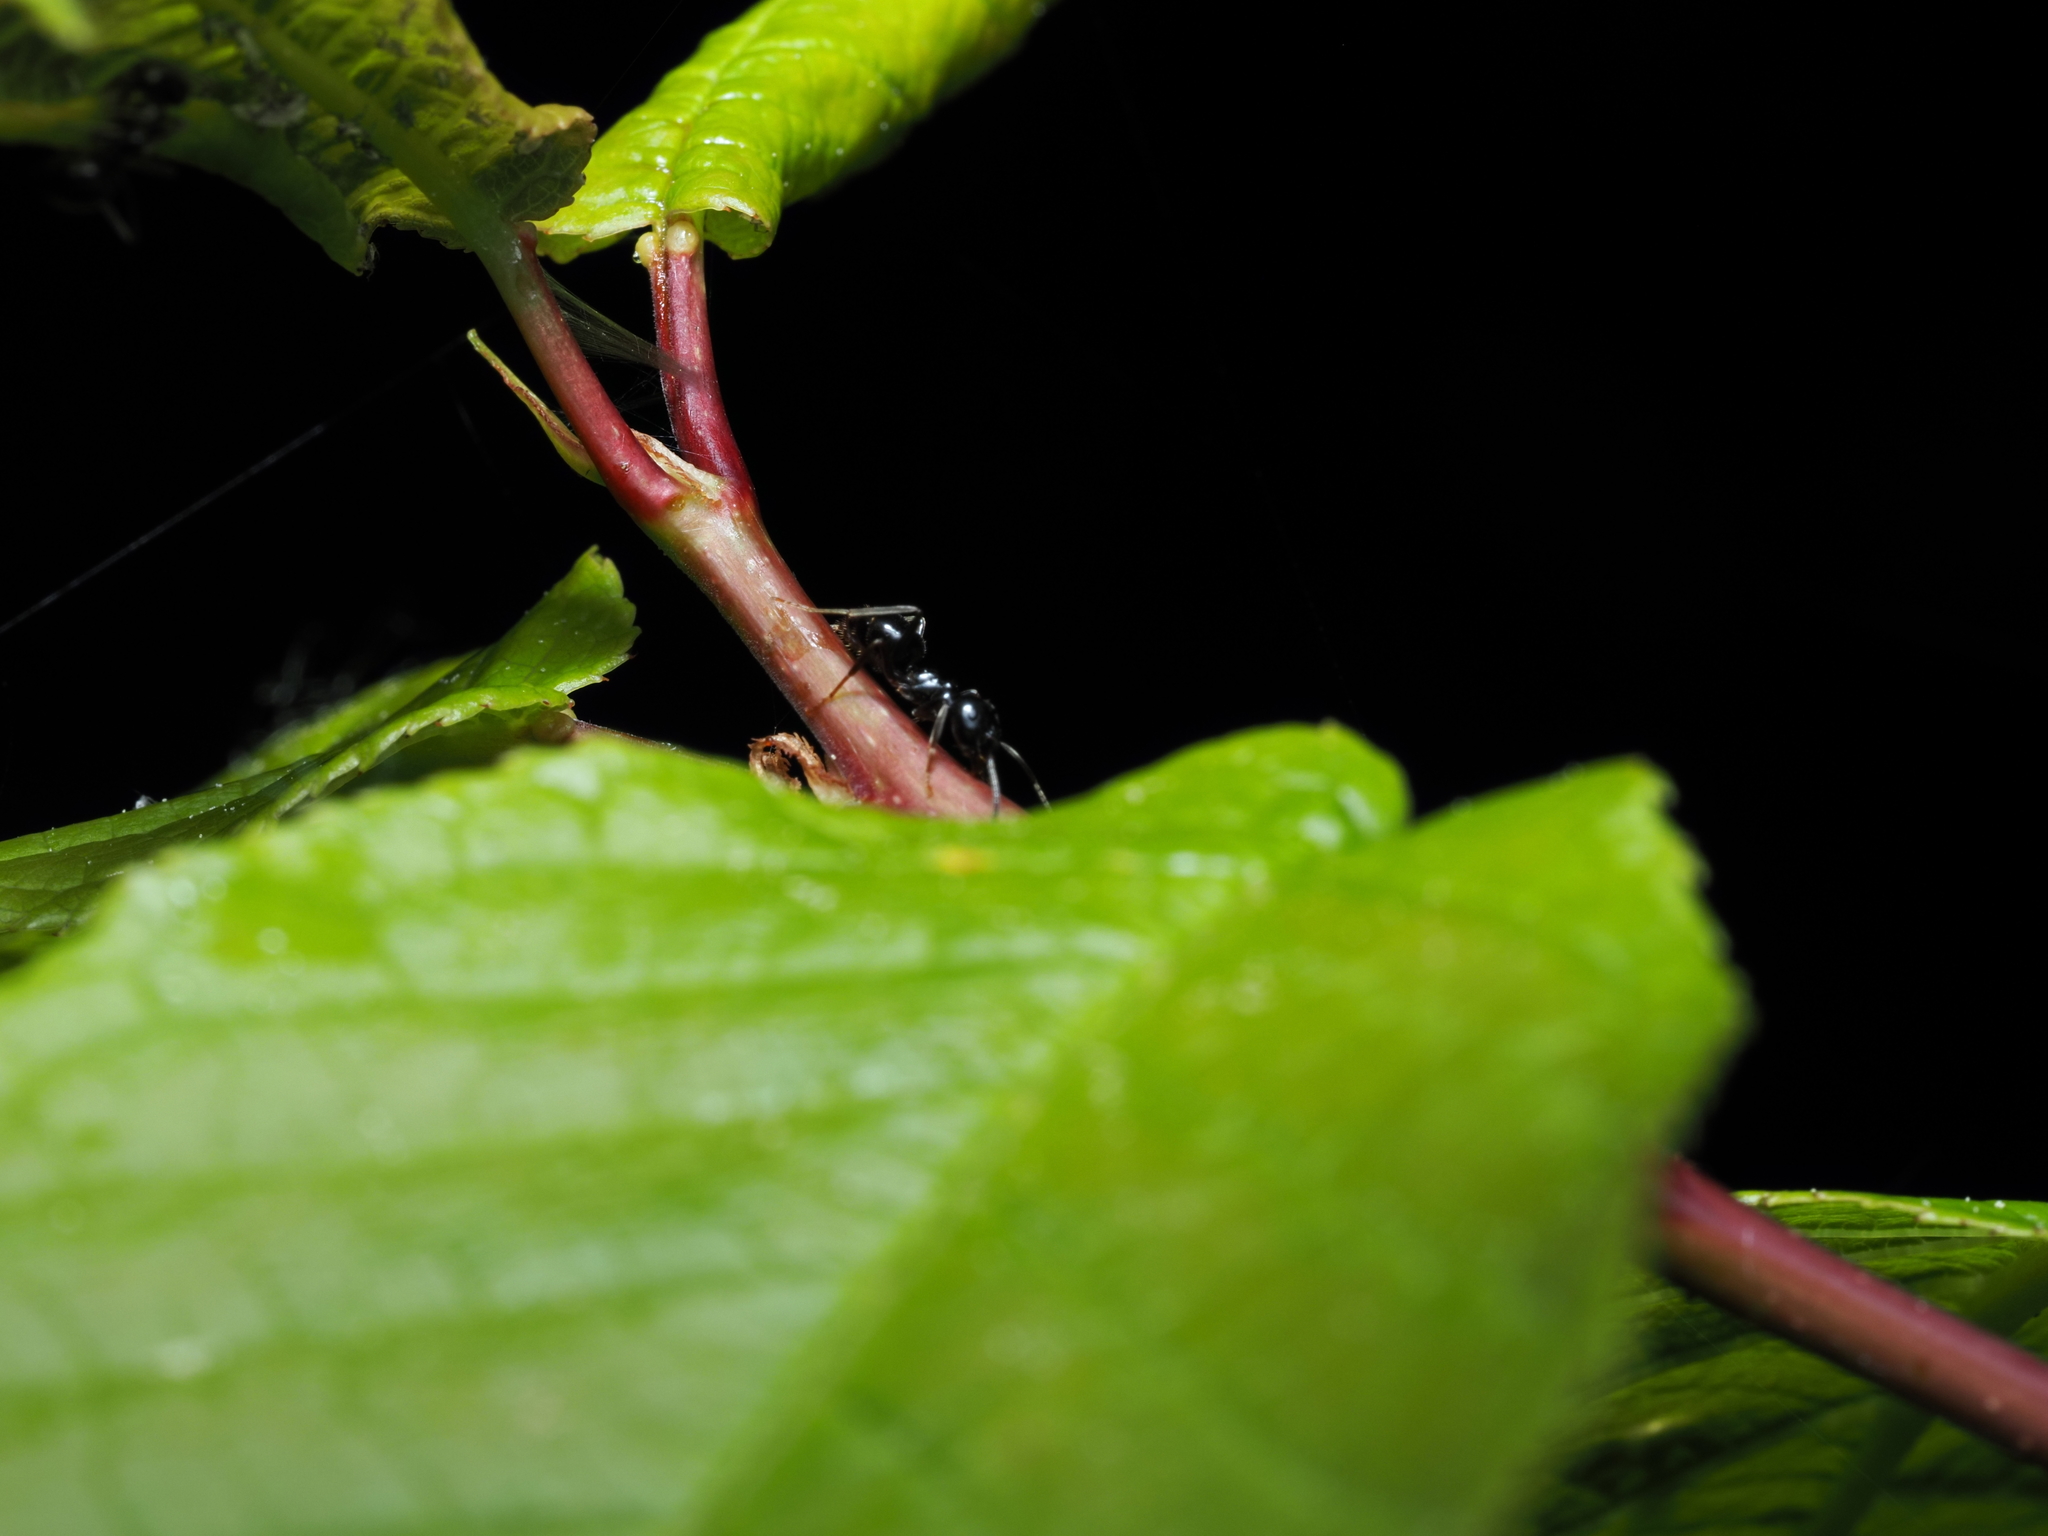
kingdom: Animalia
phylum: Arthropoda
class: Insecta
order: Hymenoptera
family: Formicidae
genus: Lasius
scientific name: Lasius fuliginosus
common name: Jet ant
